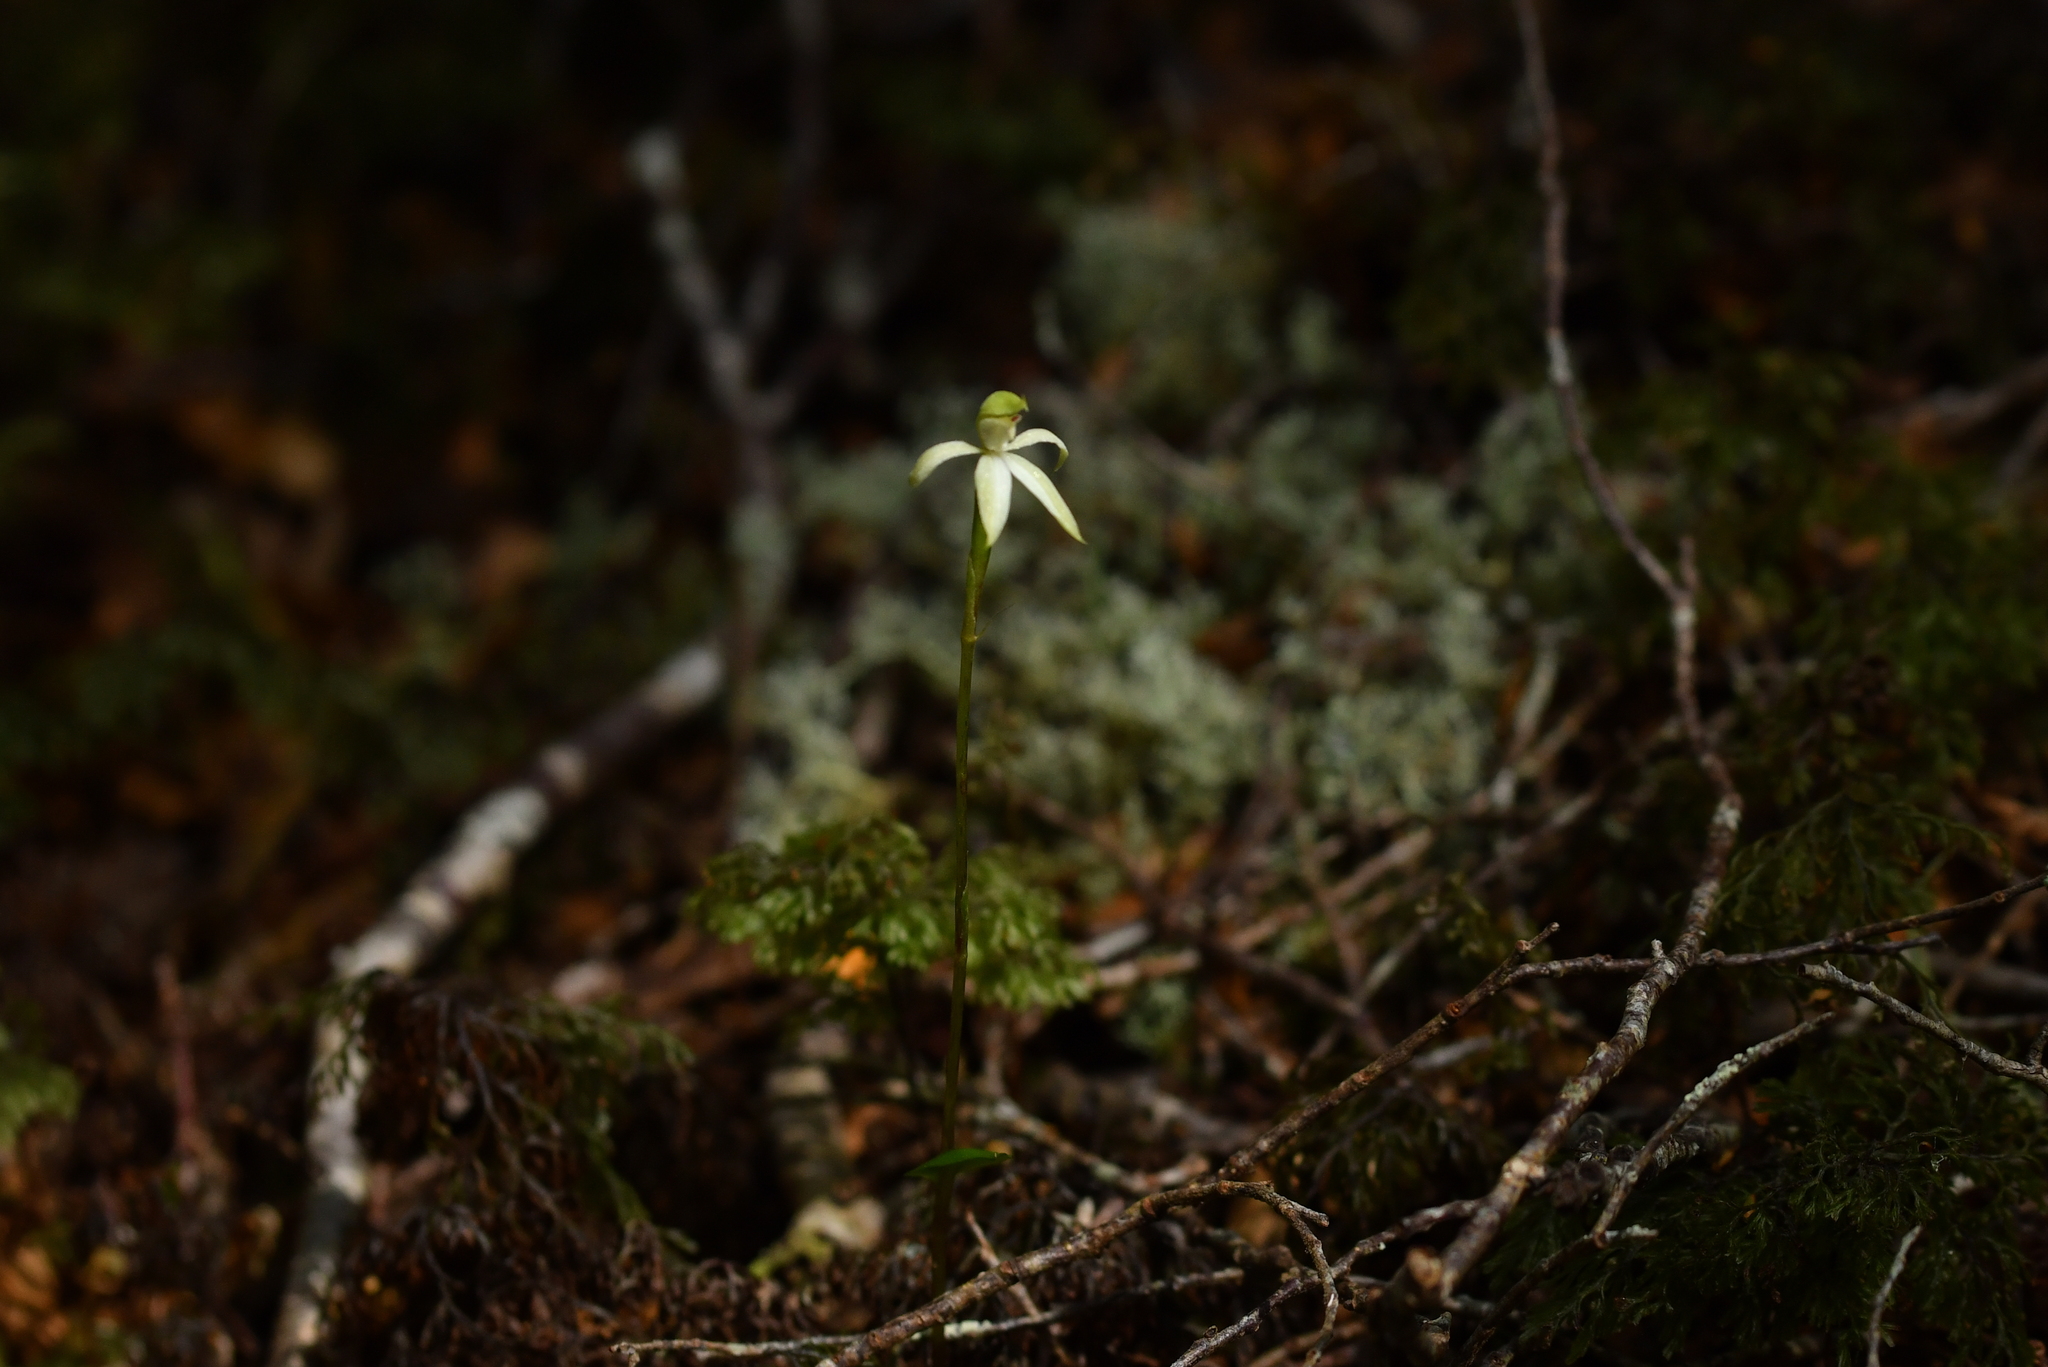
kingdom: Plantae
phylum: Tracheophyta
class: Liliopsida
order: Asparagales
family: Orchidaceae
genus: Adenochilus
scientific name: Adenochilus gracilis
